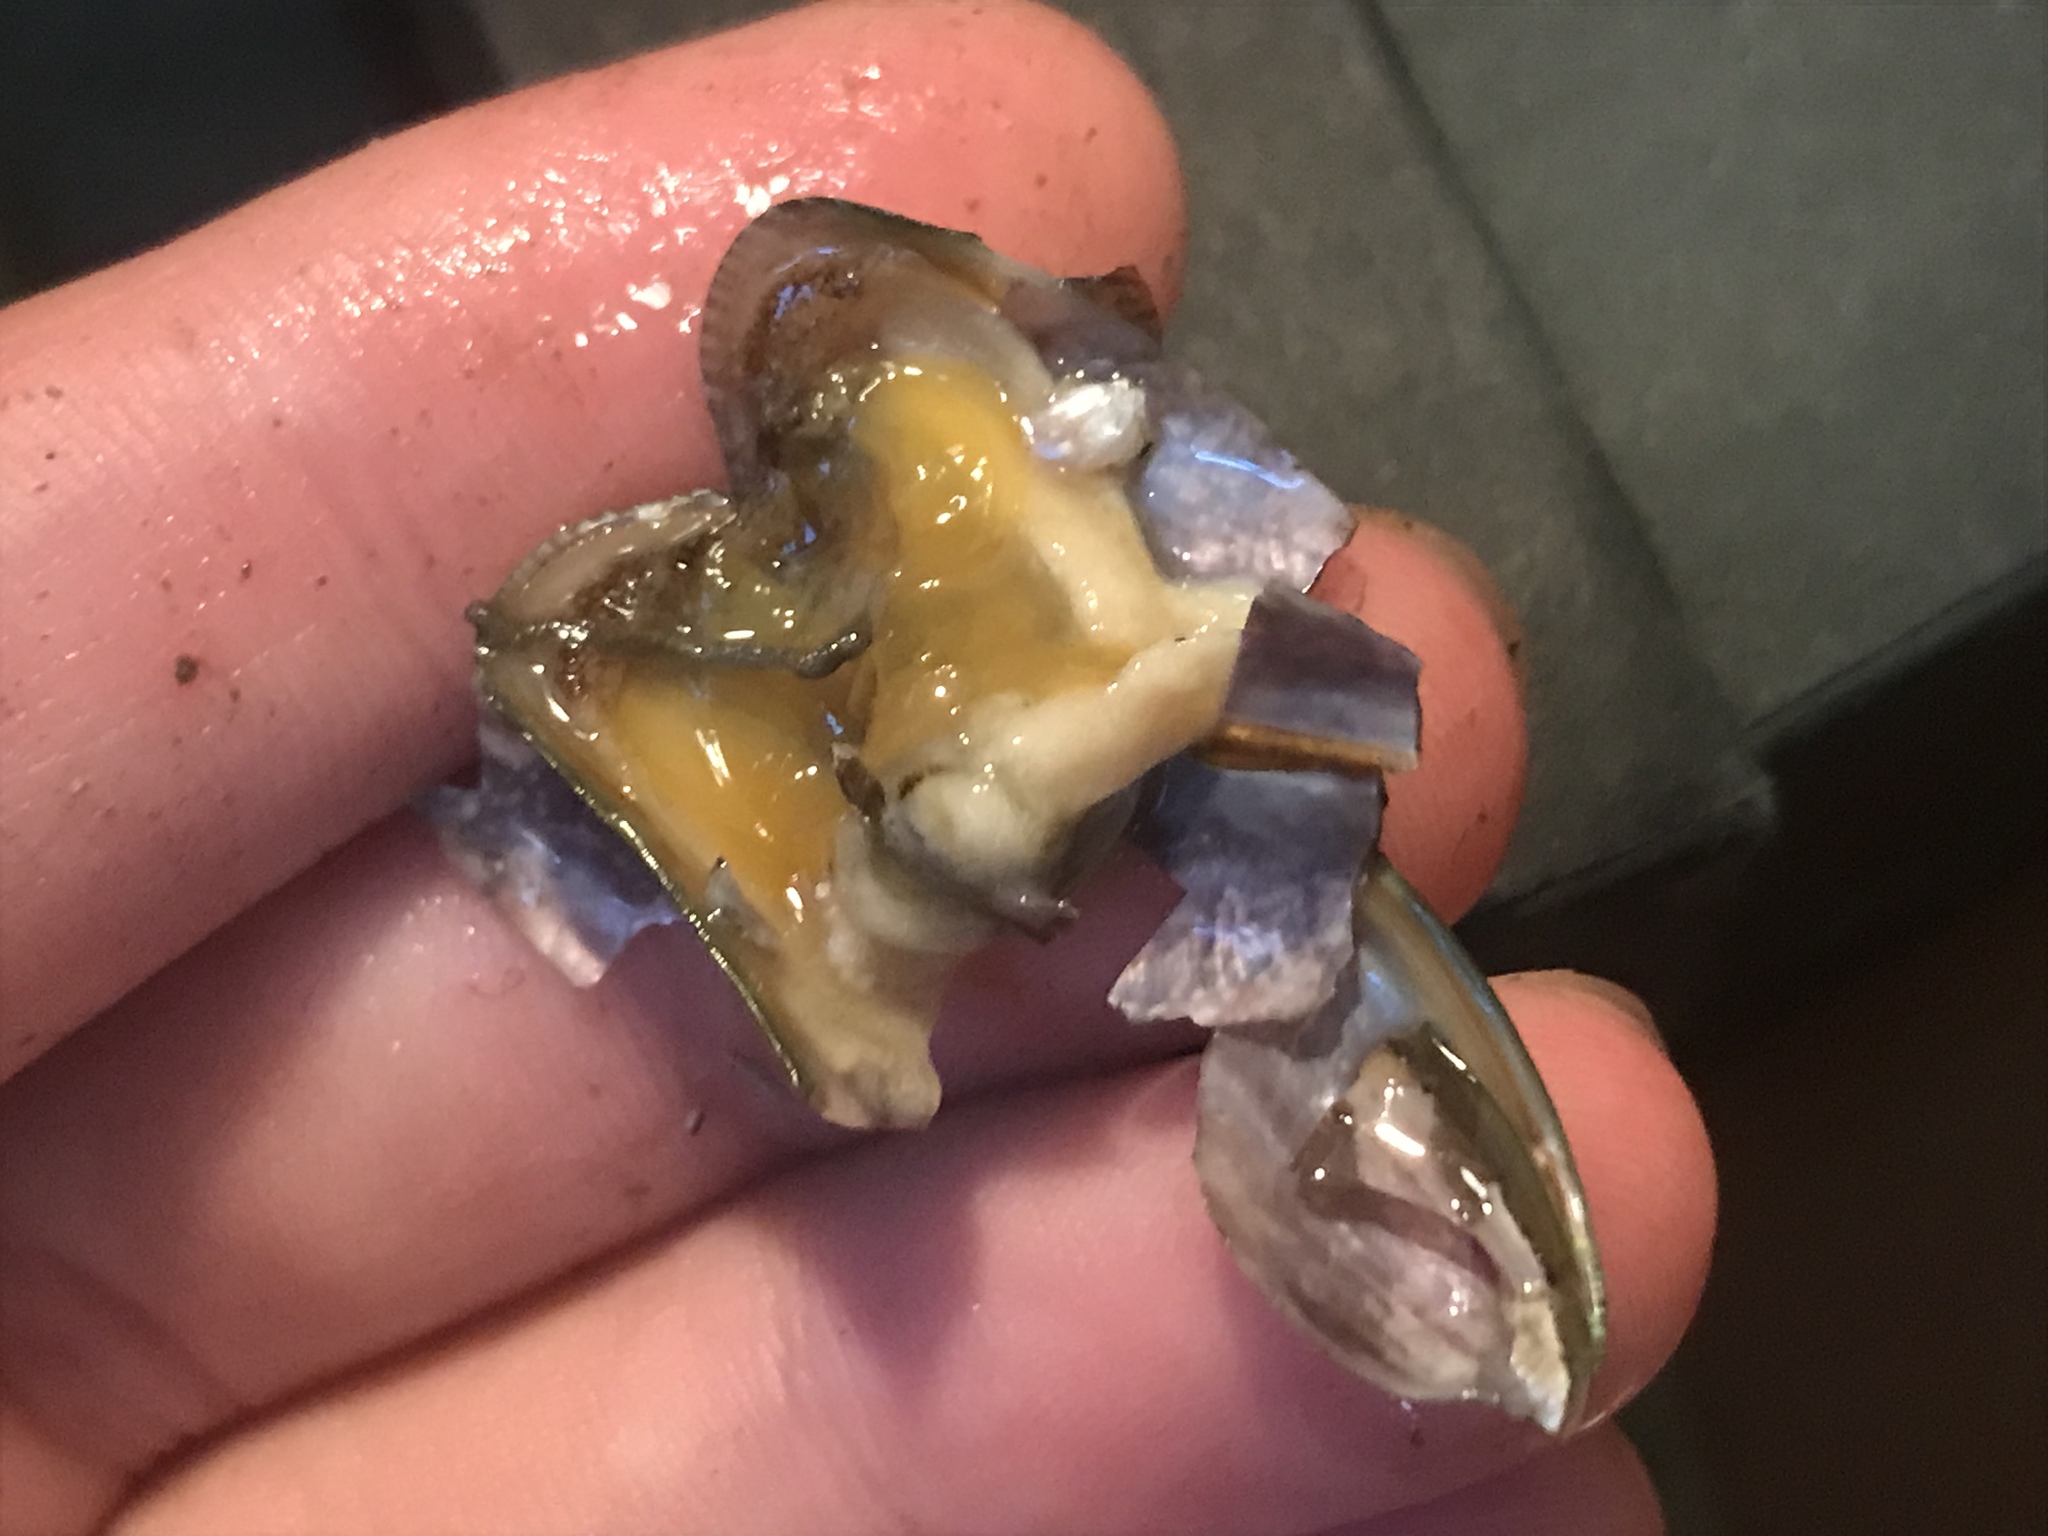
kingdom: Animalia
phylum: Mollusca
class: Bivalvia
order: Mytilida
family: Mytilidae
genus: Arcuatula
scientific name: Arcuatula senhousia
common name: Asian mussel
